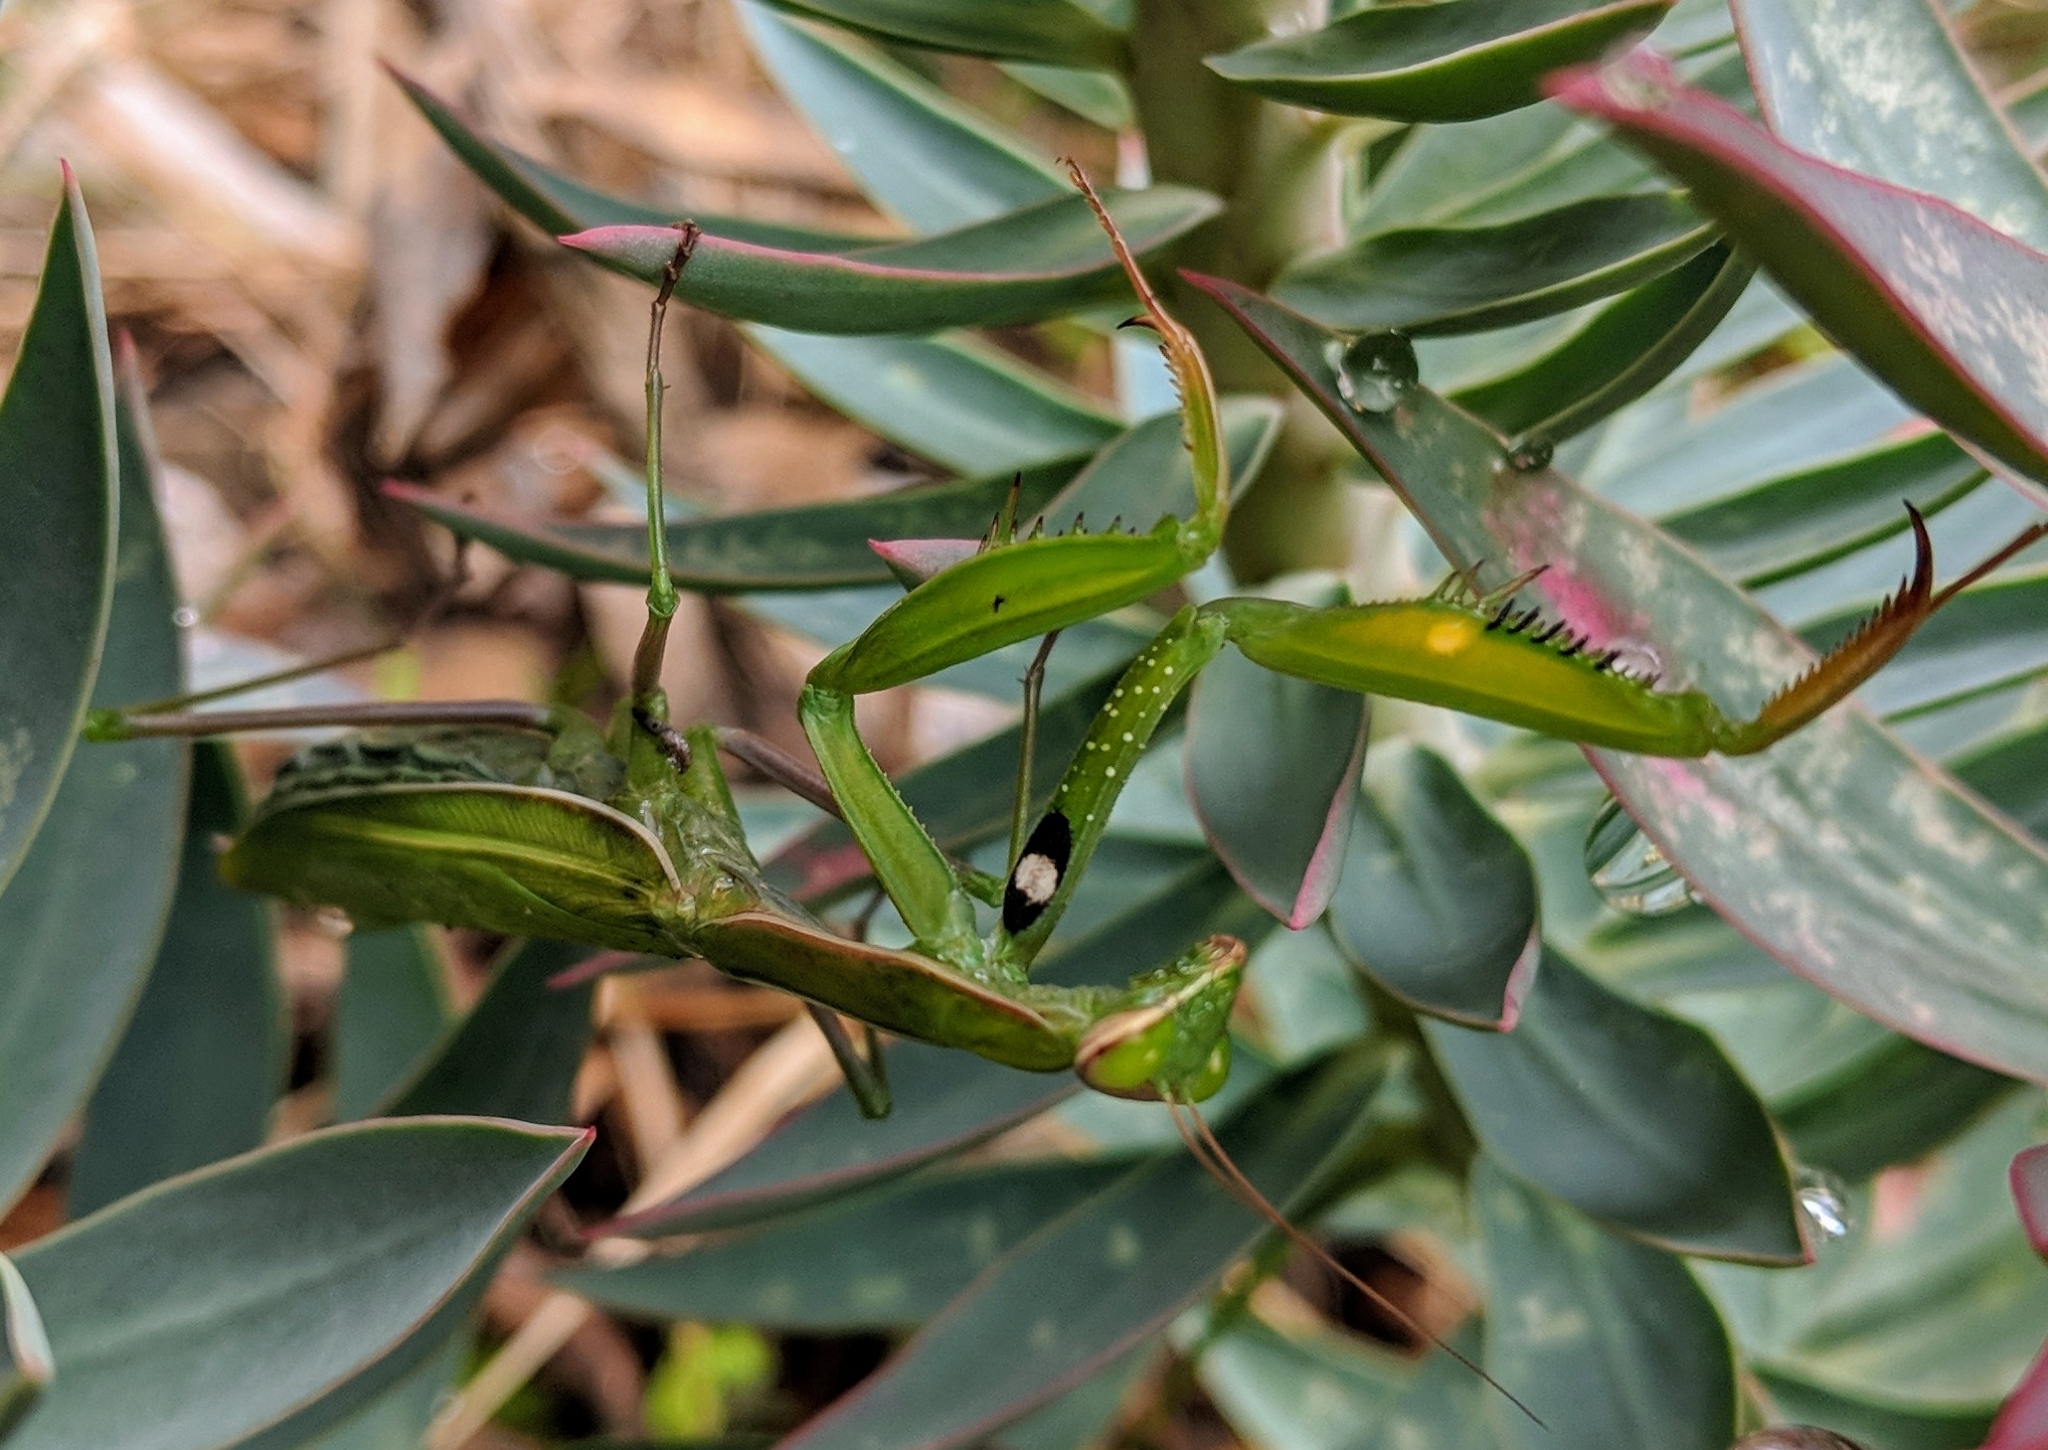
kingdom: Animalia
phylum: Arthropoda
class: Insecta
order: Mantodea
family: Mantidae
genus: Mantis
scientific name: Mantis religiosa
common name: Praying mantis
